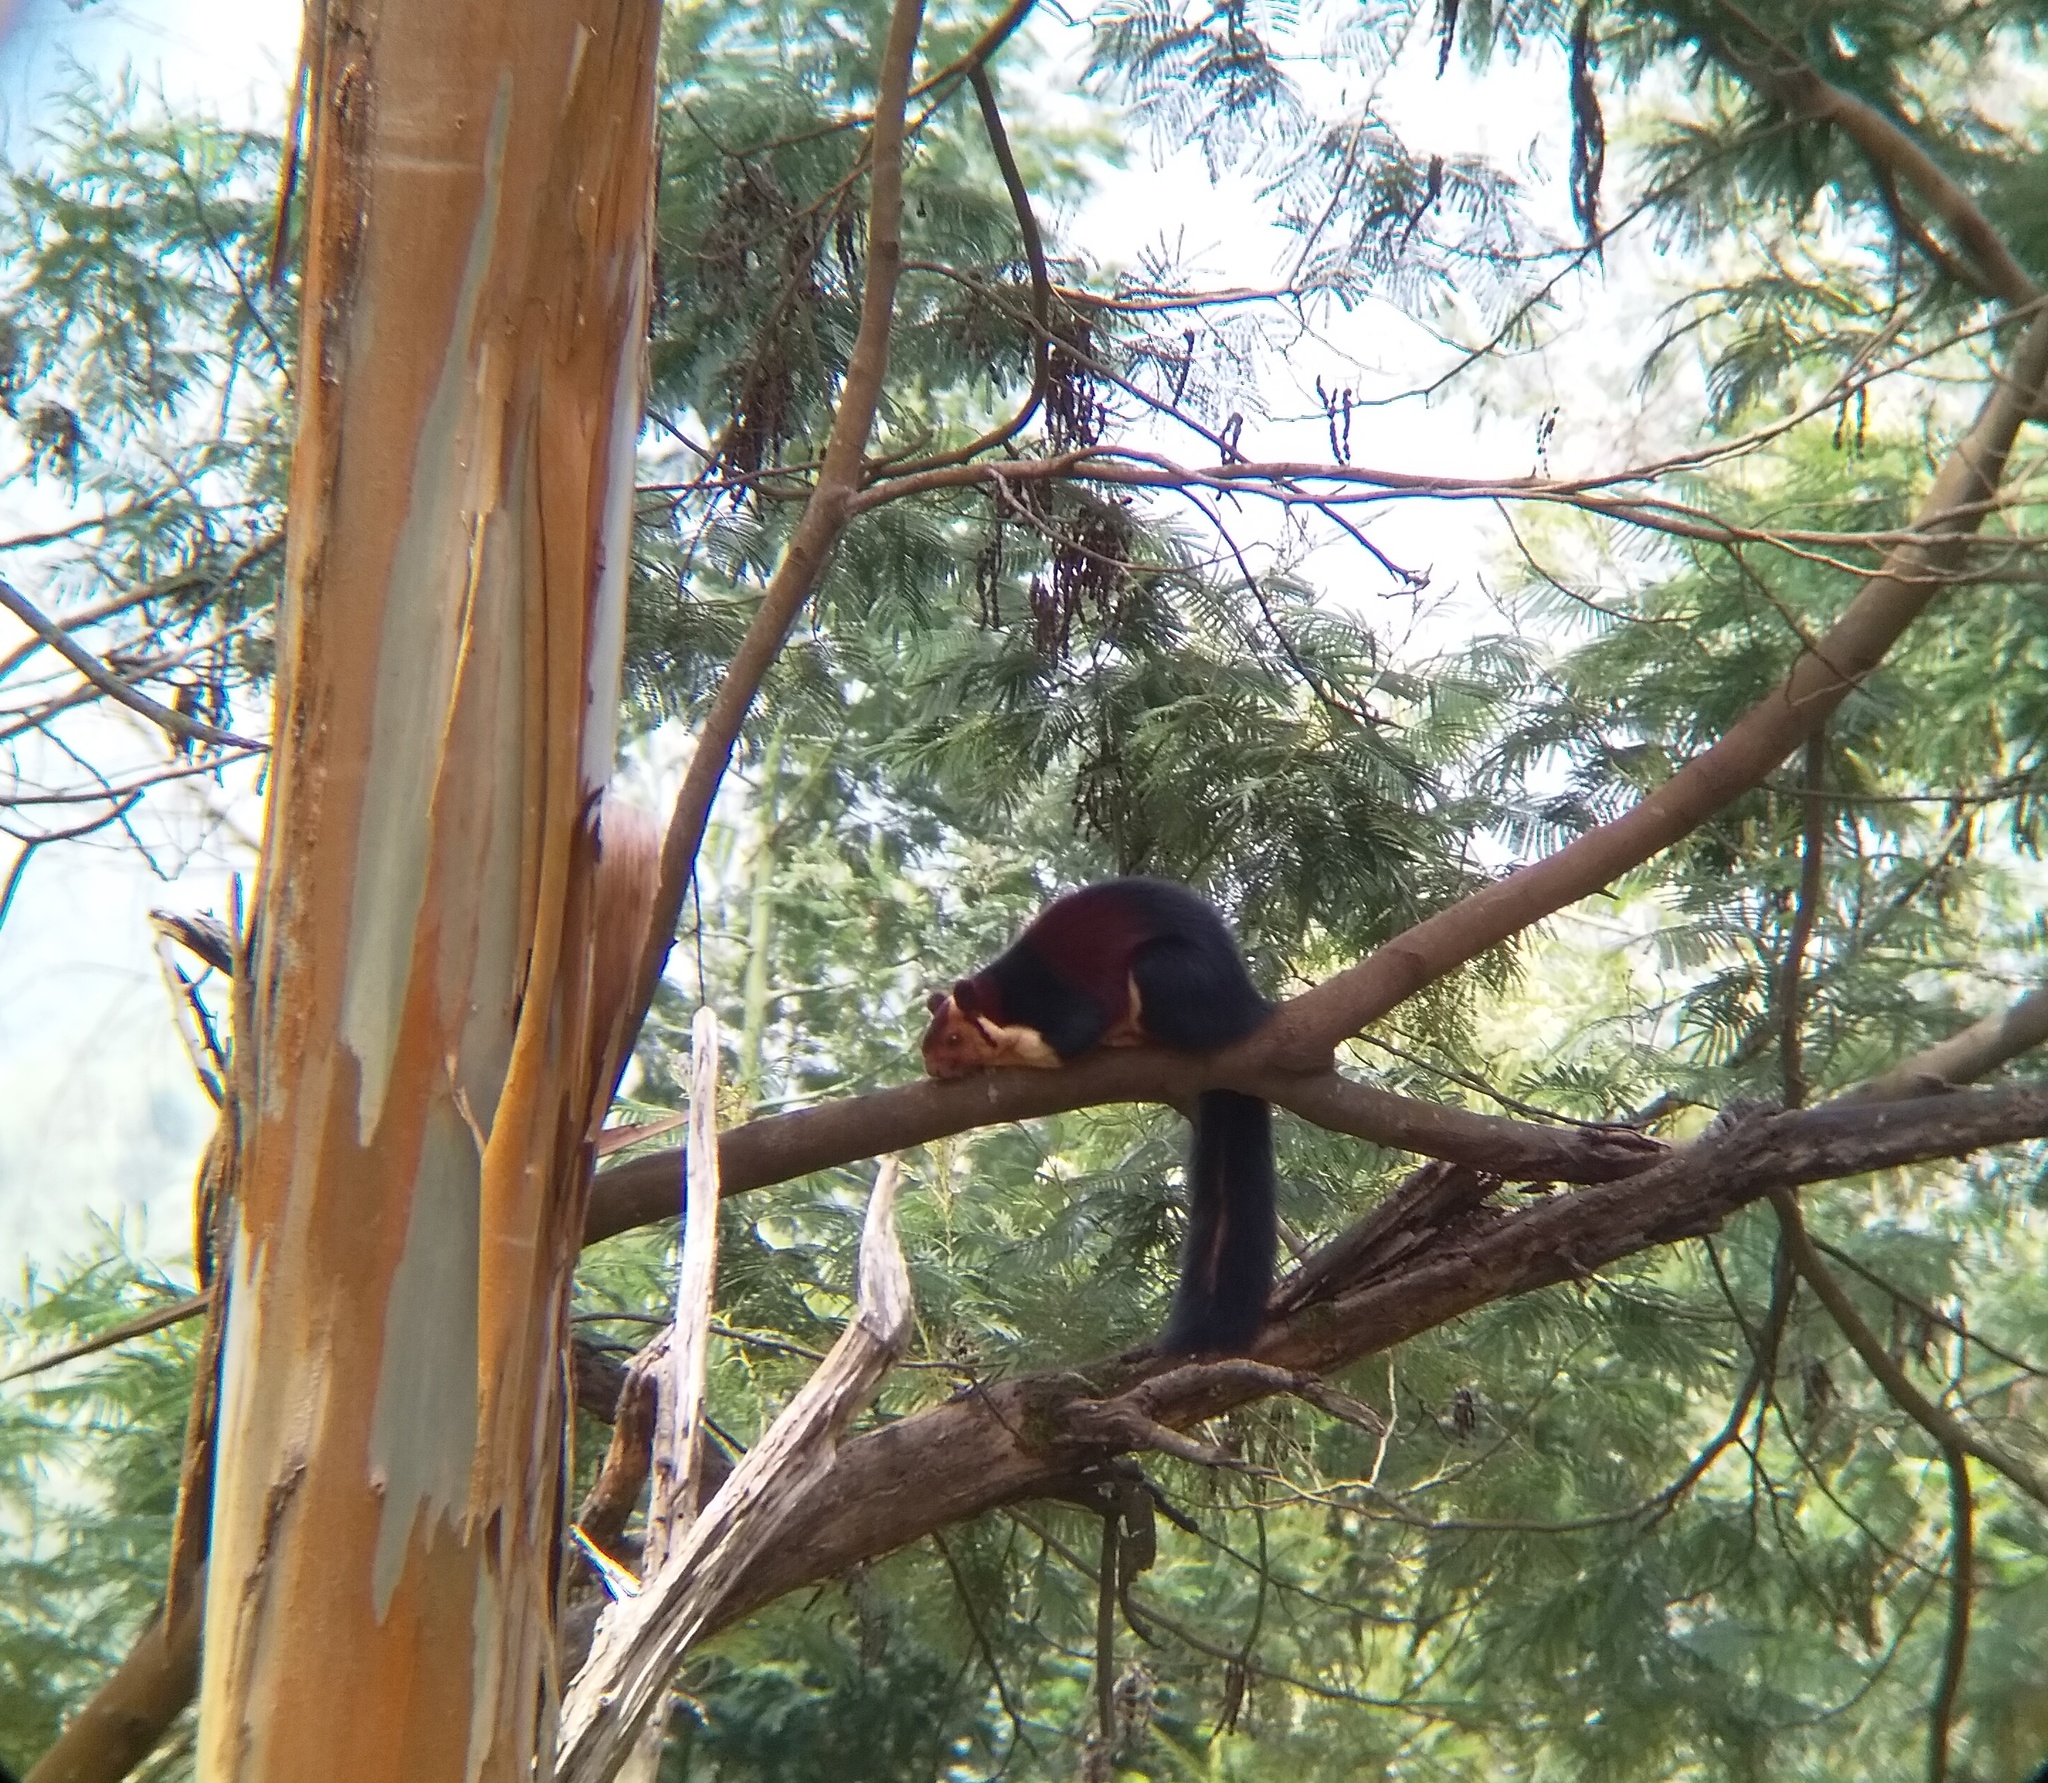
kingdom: Animalia
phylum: Chordata
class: Mammalia
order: Rodentia
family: Sciuridae
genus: Ratufa
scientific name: Ratufa indica
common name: Indian giant squirrel
